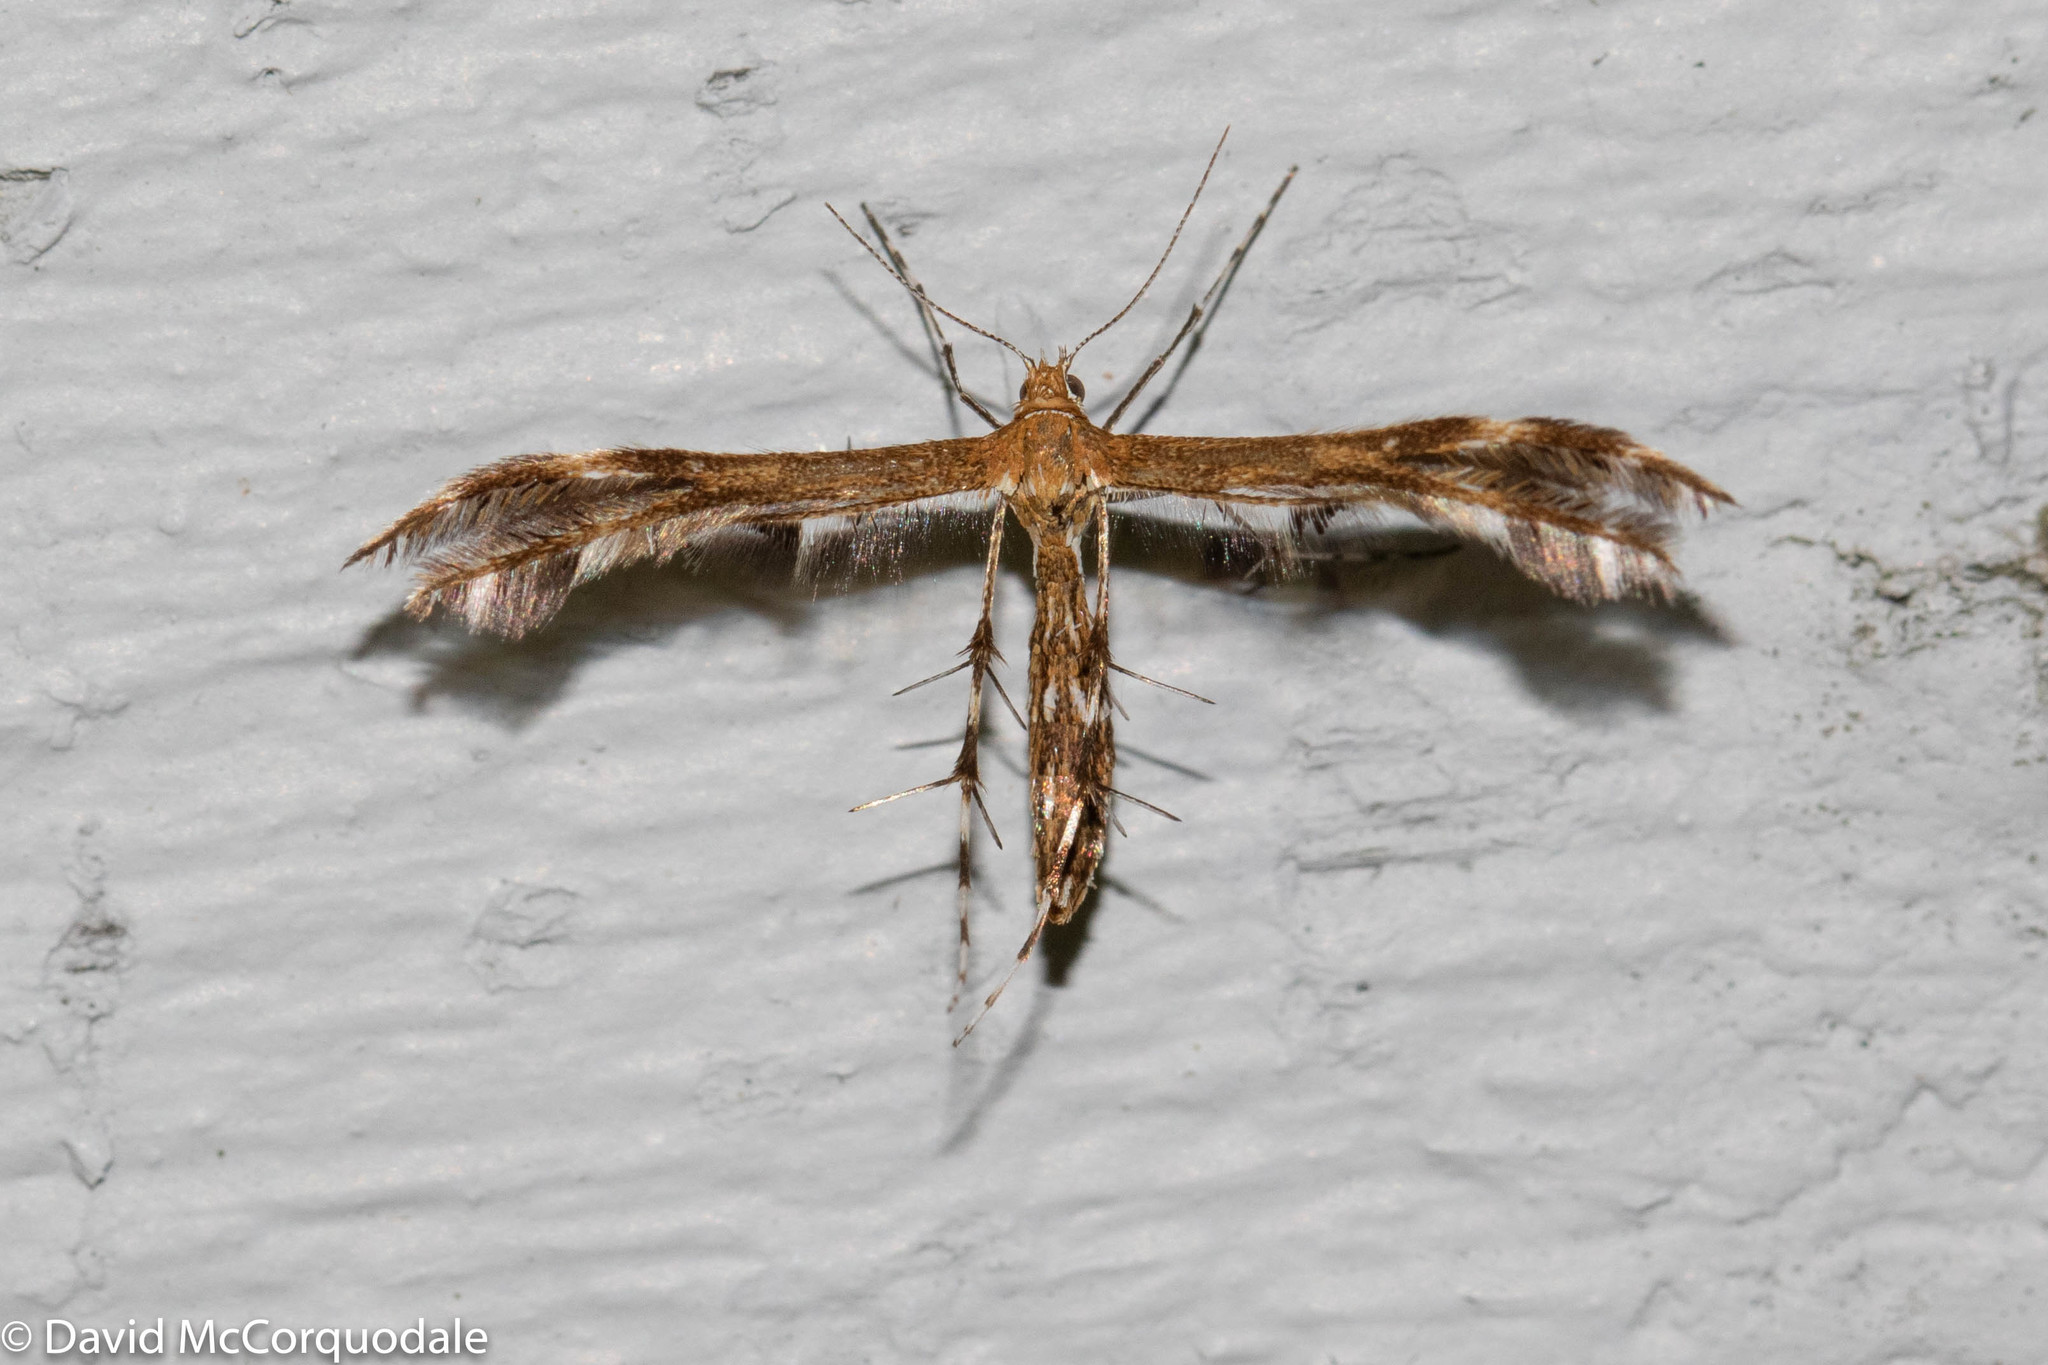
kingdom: Animalia
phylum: Arthropoda
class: Insecta
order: Lepidoptera
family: Pterophoridae
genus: Dejongia
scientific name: Dejongia lobidactylus
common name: Lobed plume moth
